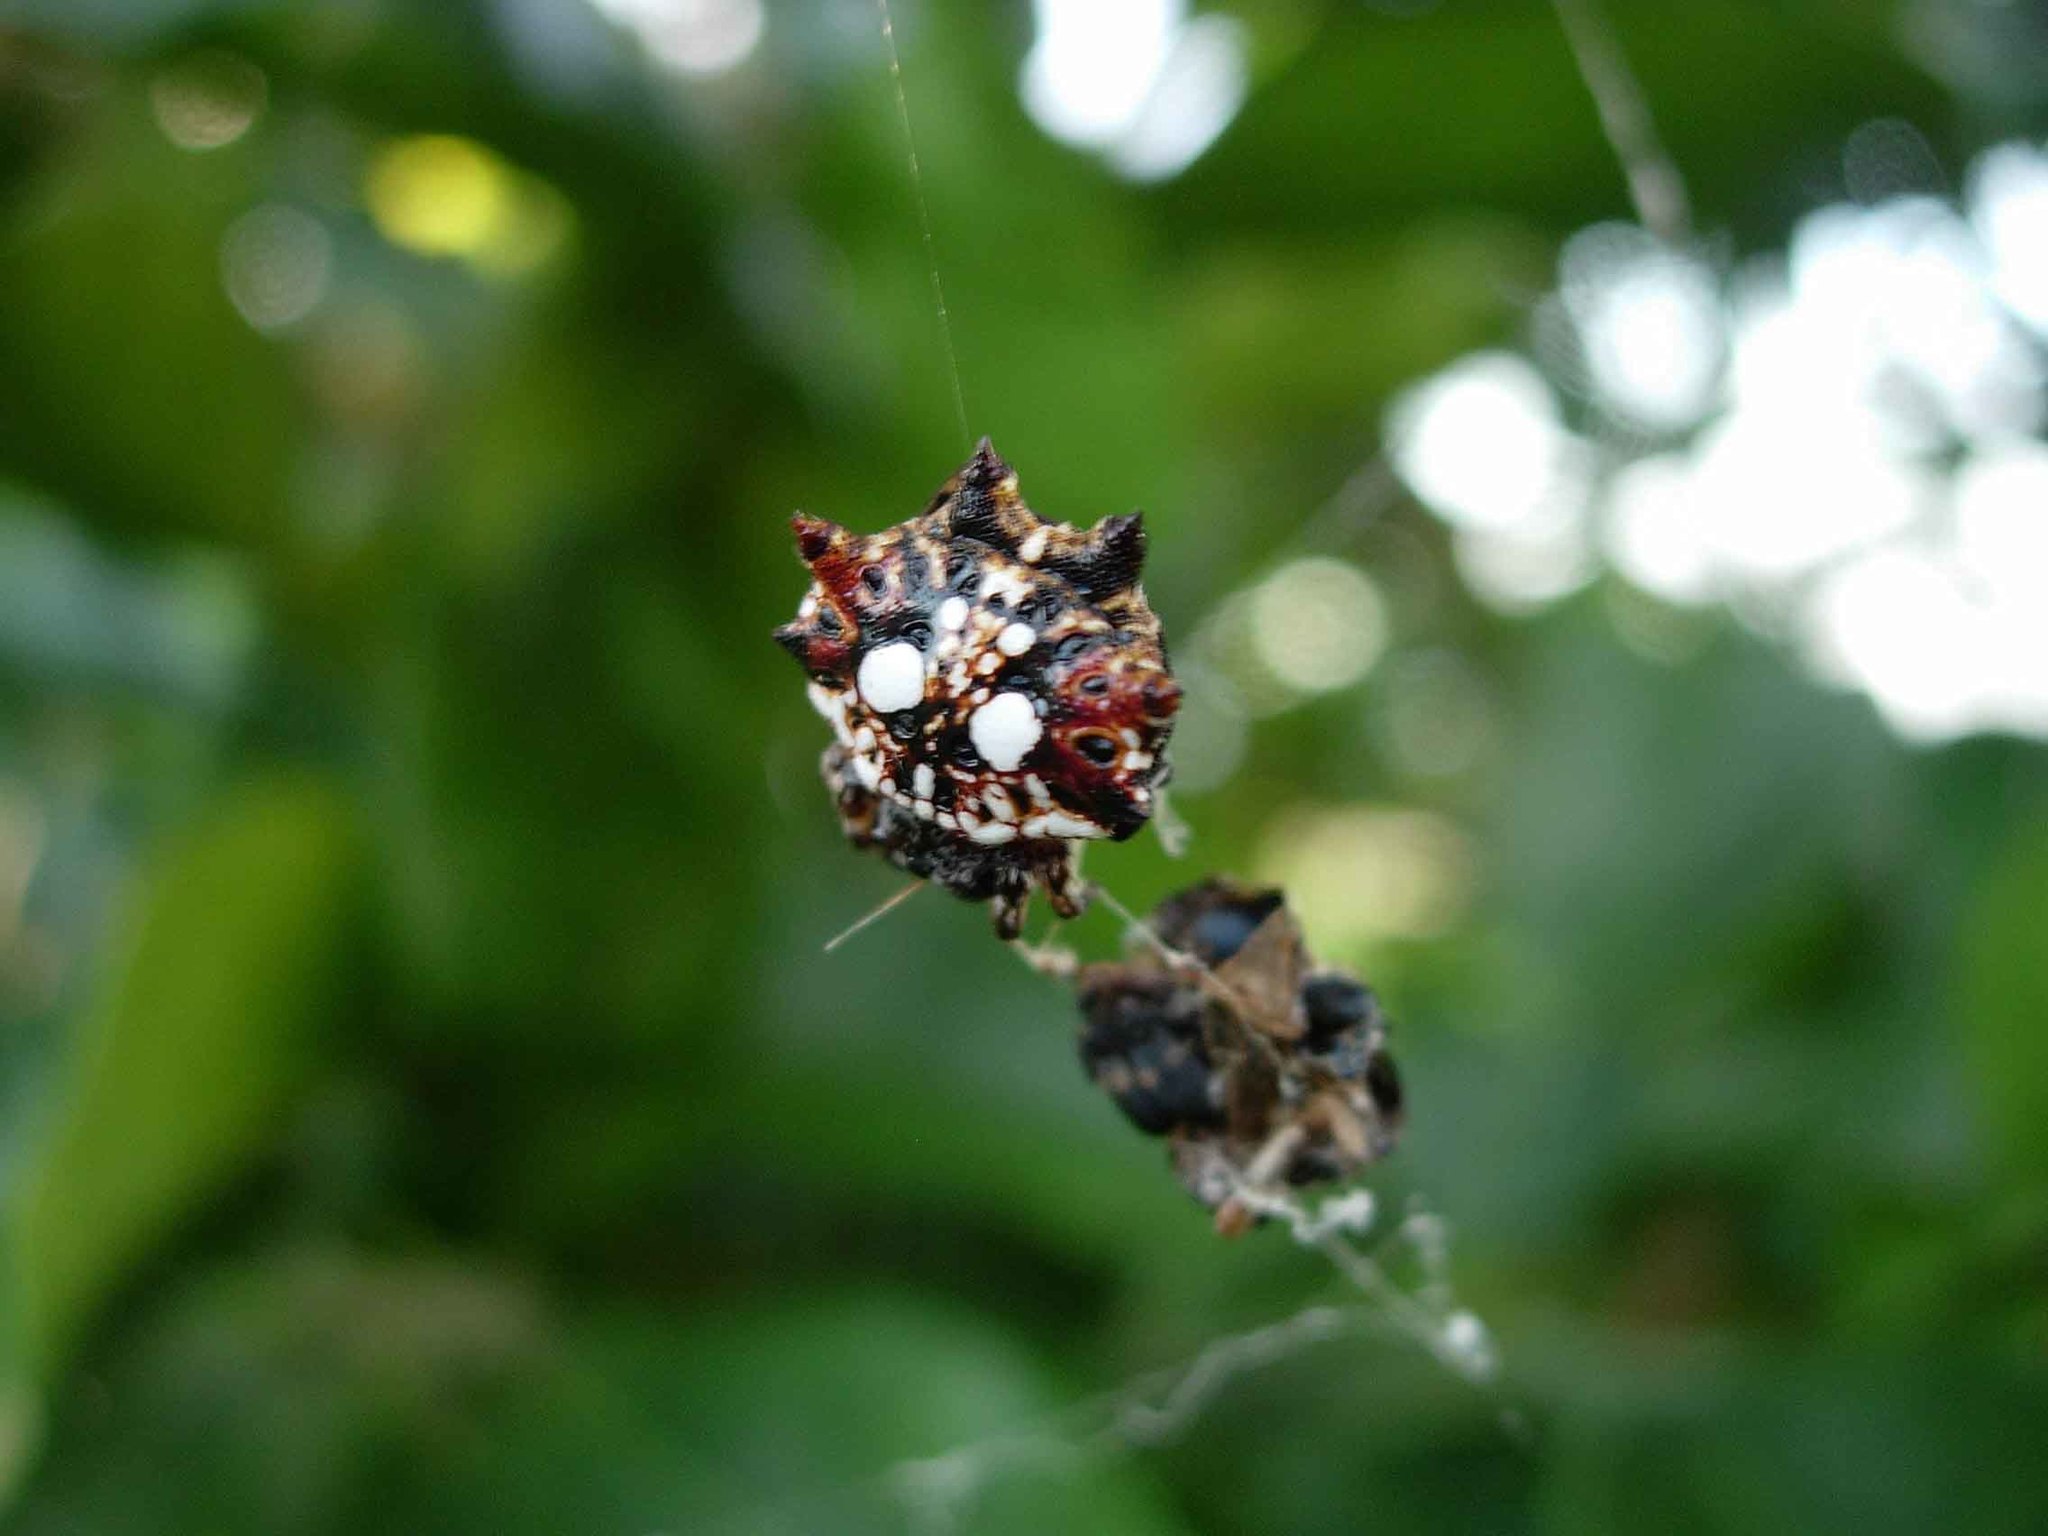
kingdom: Animalia
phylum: Arthropoda
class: Arachnida
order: Araneae
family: Araneidae
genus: Thelacantha
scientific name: Thelacantha brevispina
